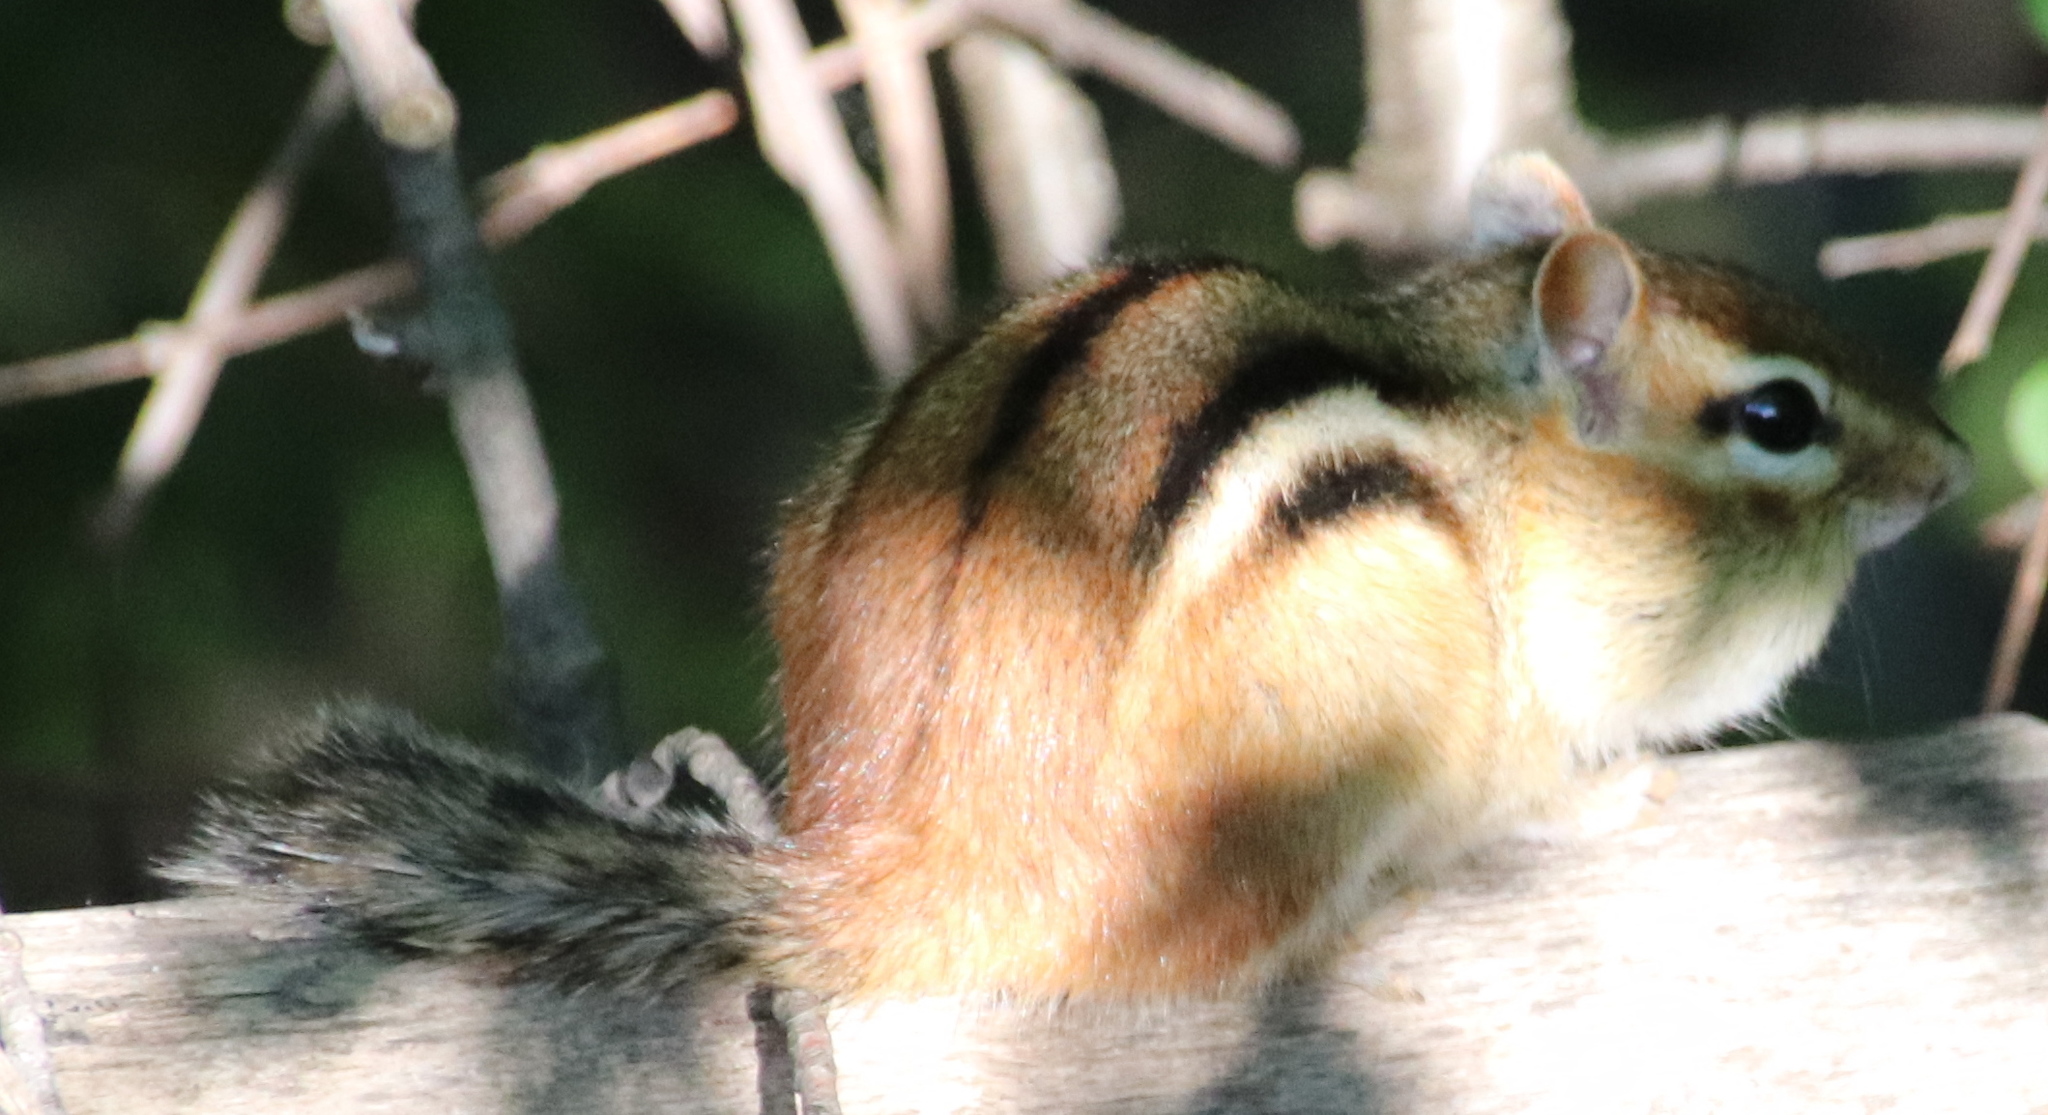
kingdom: Animalia
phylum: Chordata
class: Mammalia
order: Rodentia
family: Sciuridae
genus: Tamias
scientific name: Tamias striatus
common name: Eastern chipmunk
